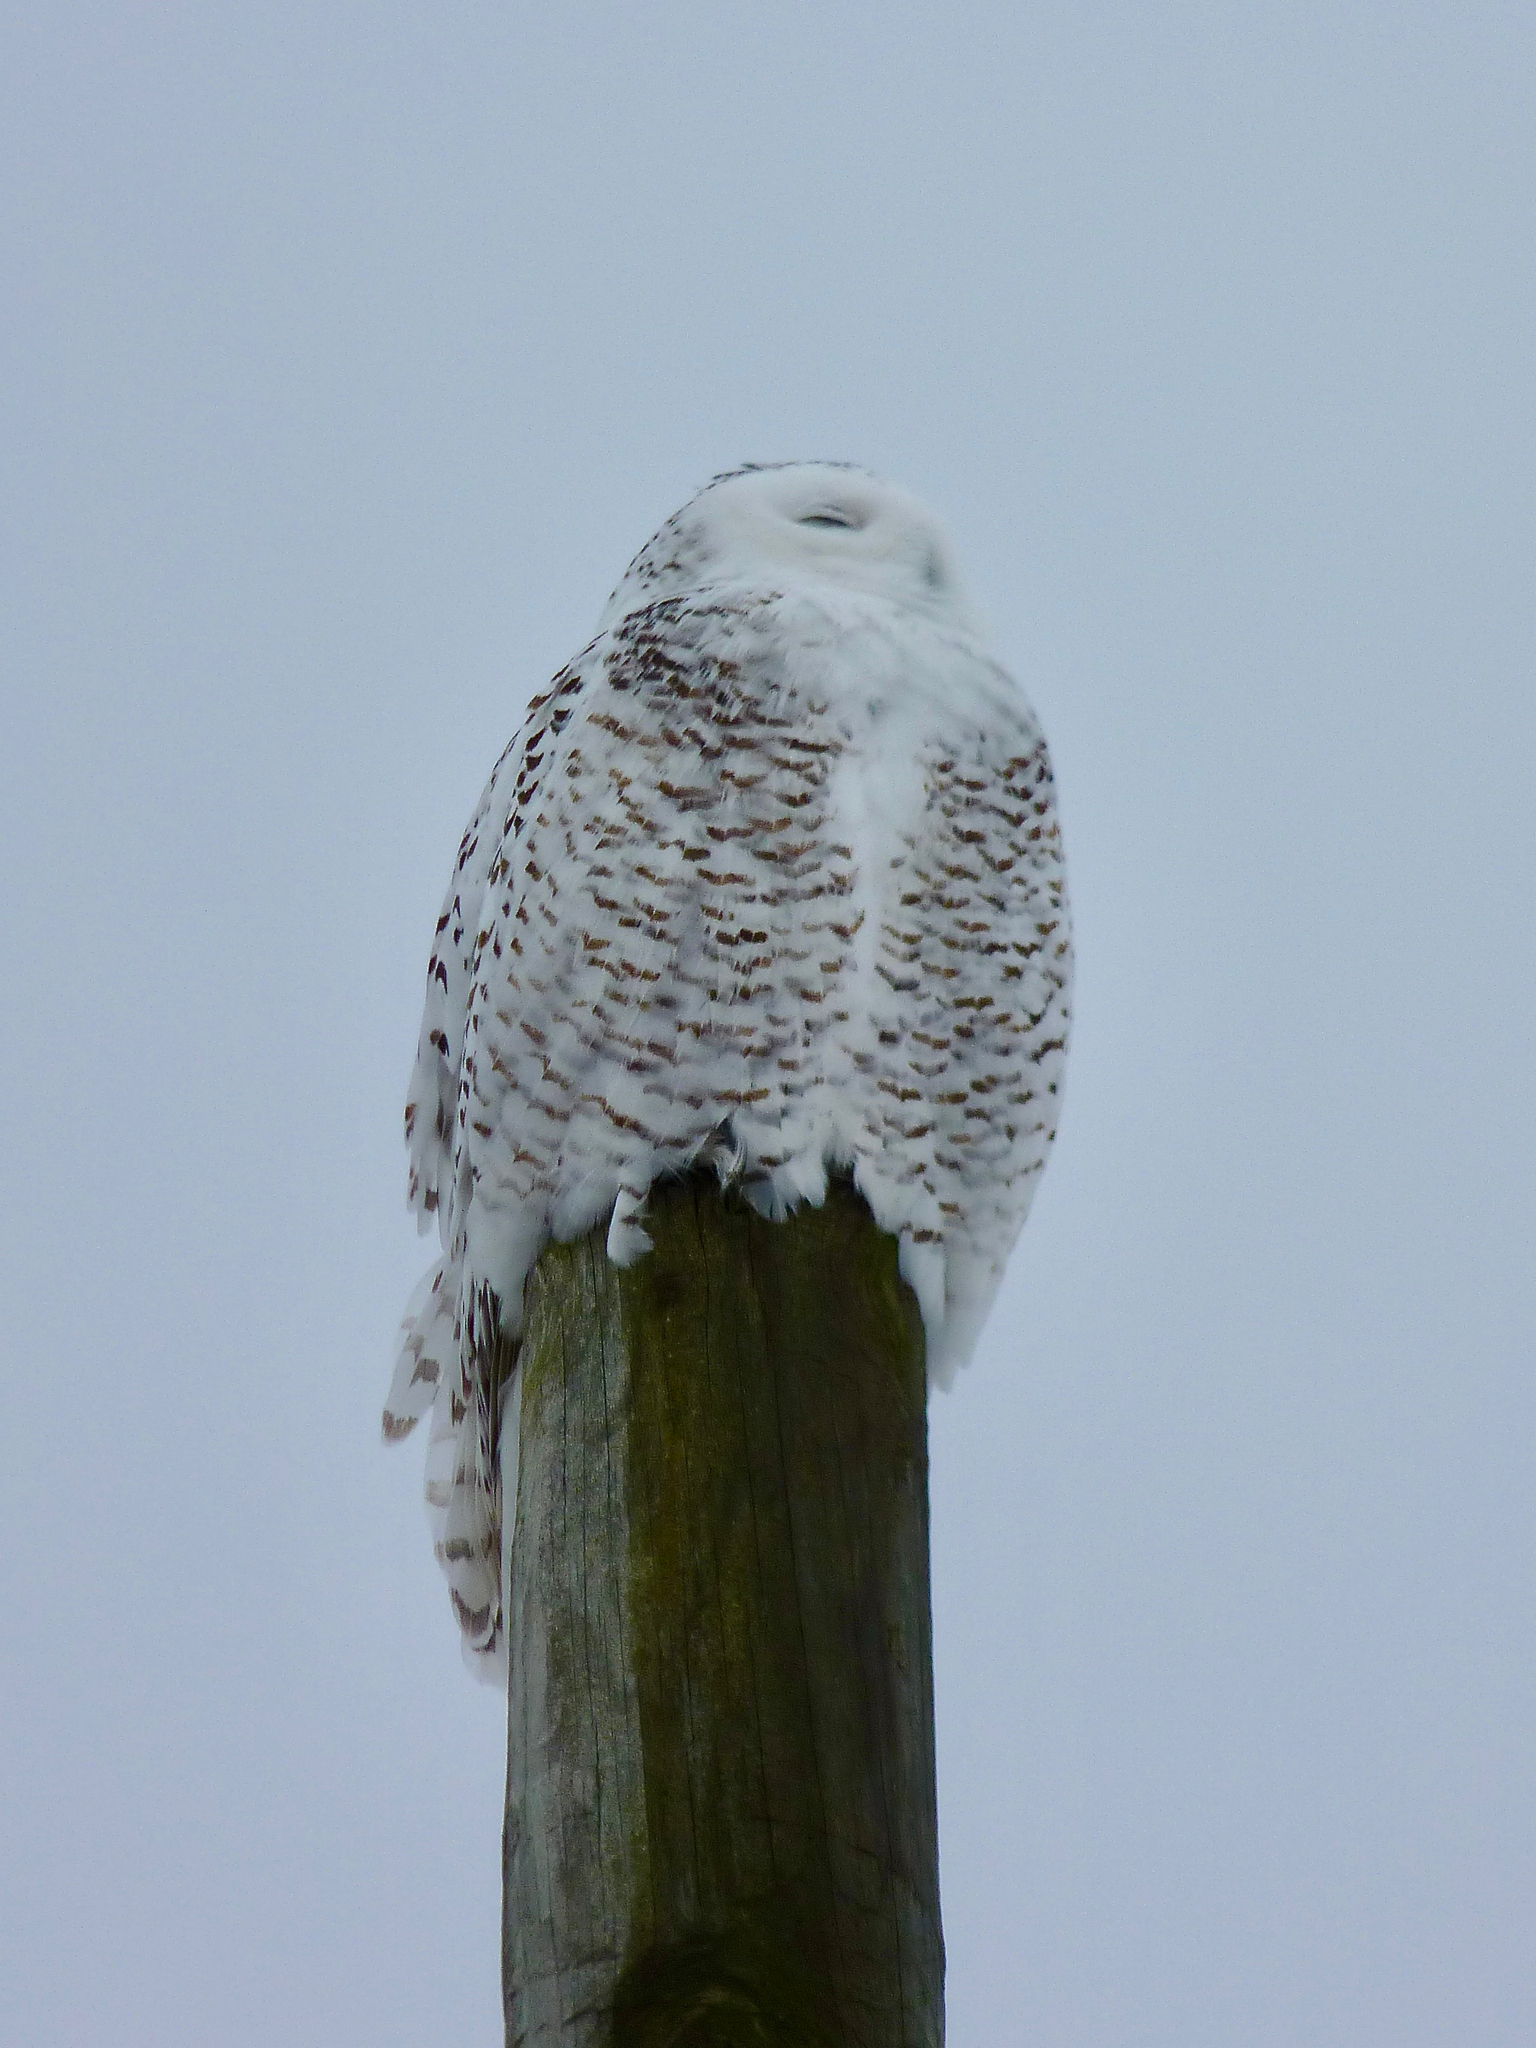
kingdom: Animalia
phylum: Chordata
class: Aves
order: Strigiformes
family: Strigidae
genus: Bubo
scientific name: Bubo scandiacus
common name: Snowy owl
